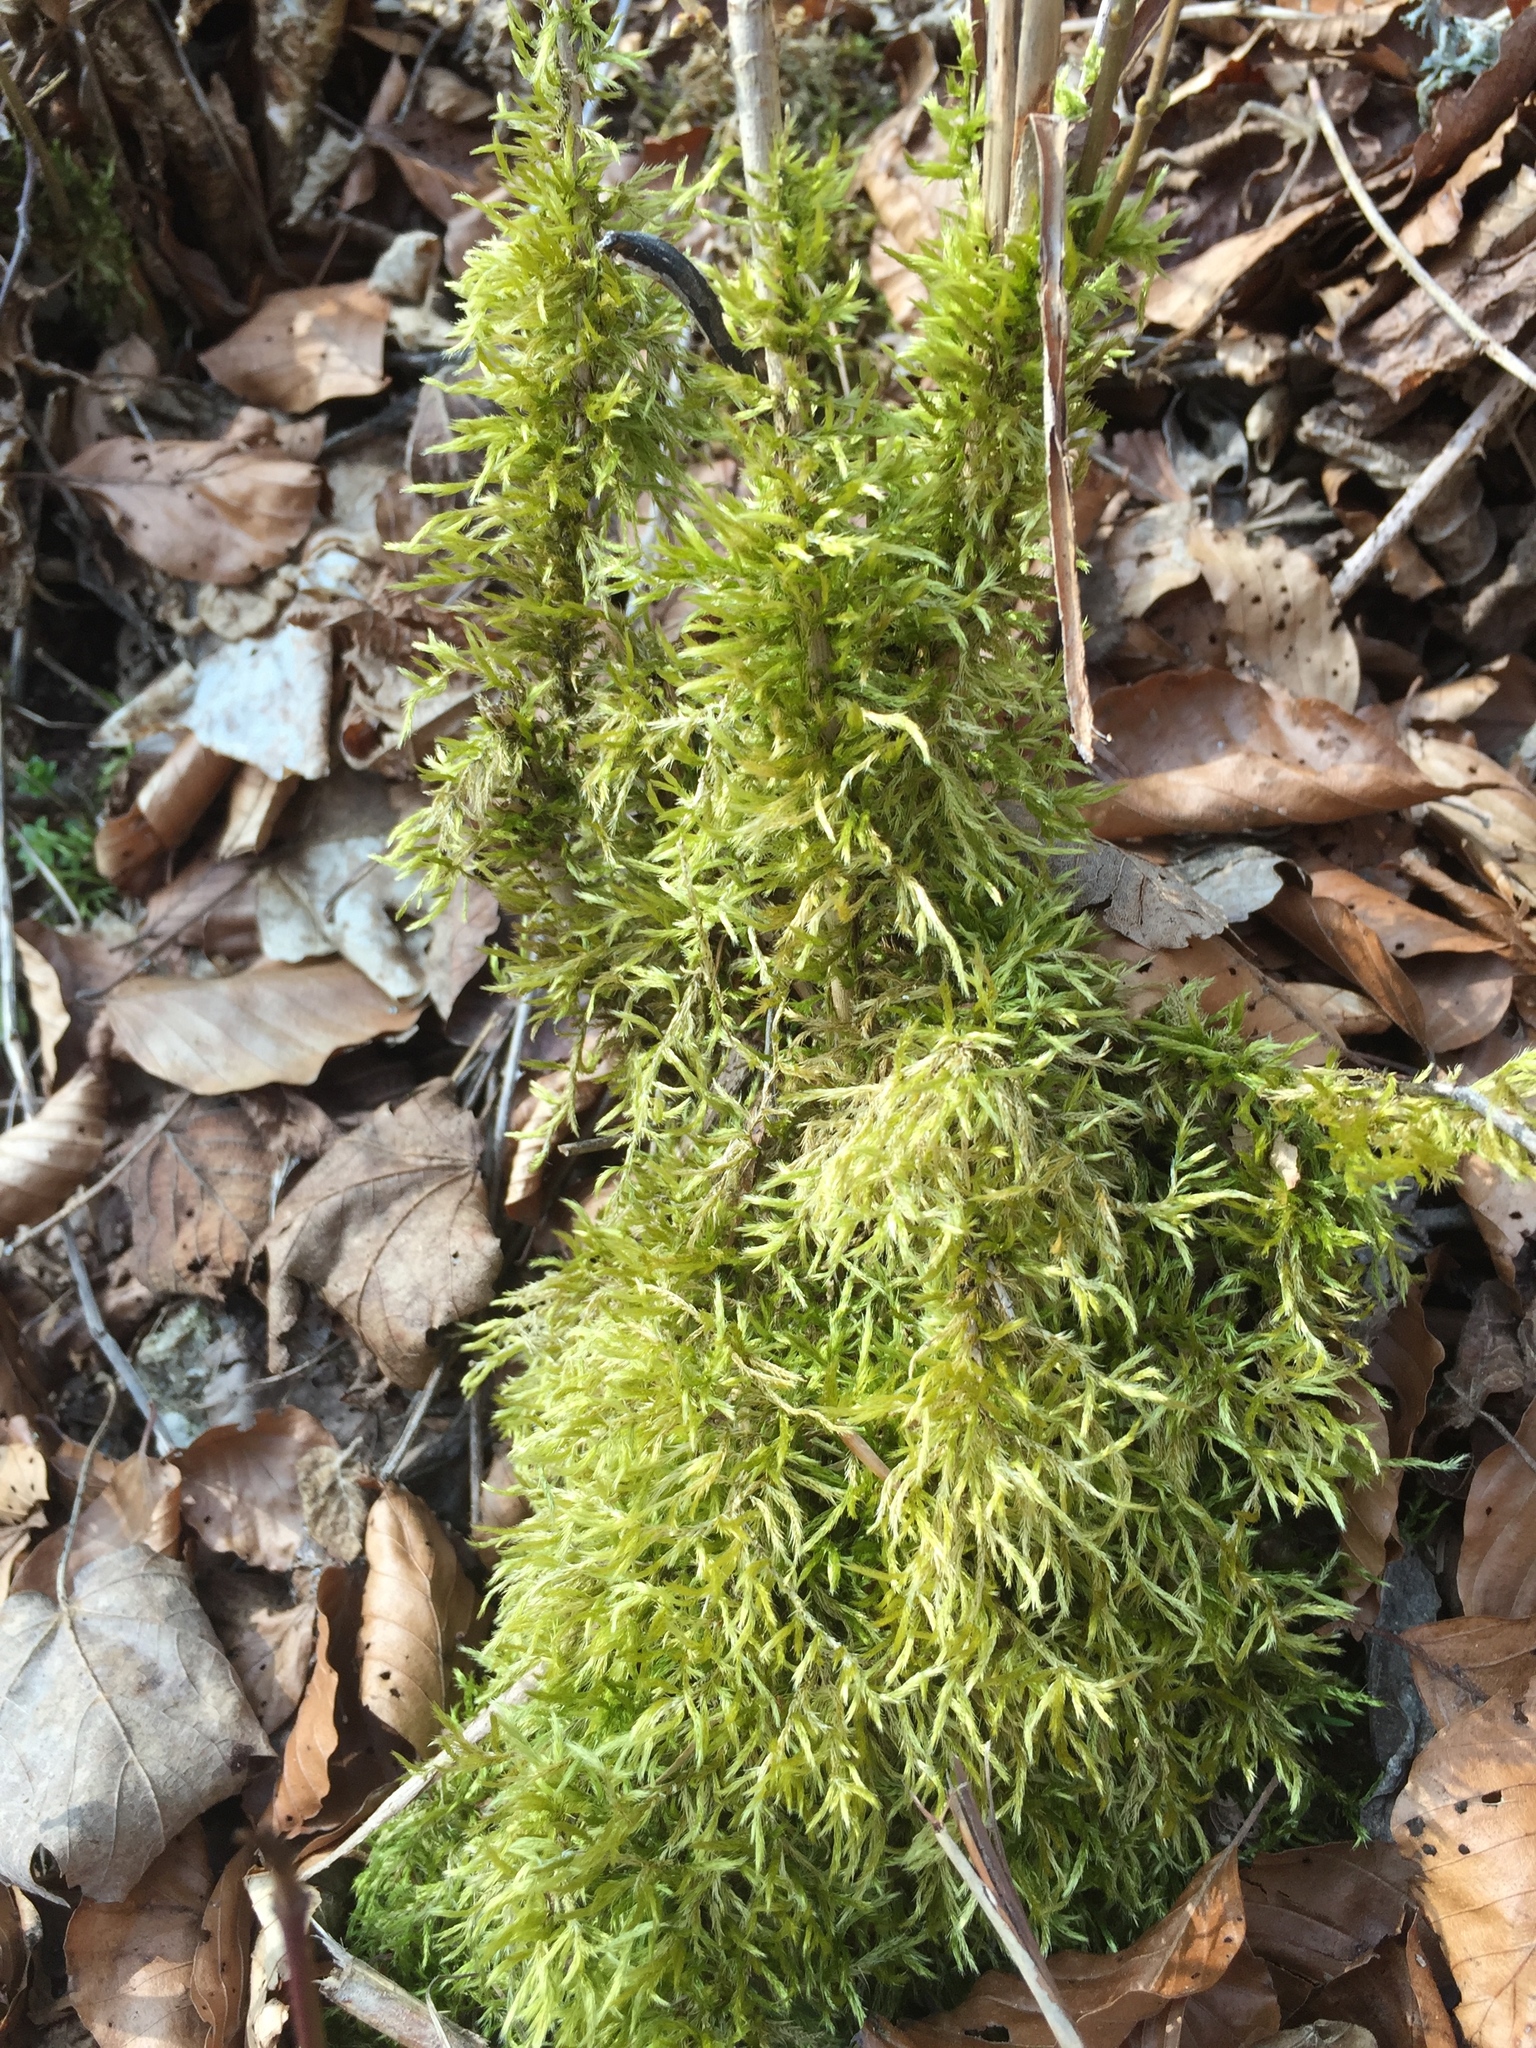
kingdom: Plantae
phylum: Bryophyta
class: Bryopsida
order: Hypnales
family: Hypnaceae
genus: Hypnum
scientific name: Hypnum cupressiforme
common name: Cypress-leaved plait-moss
